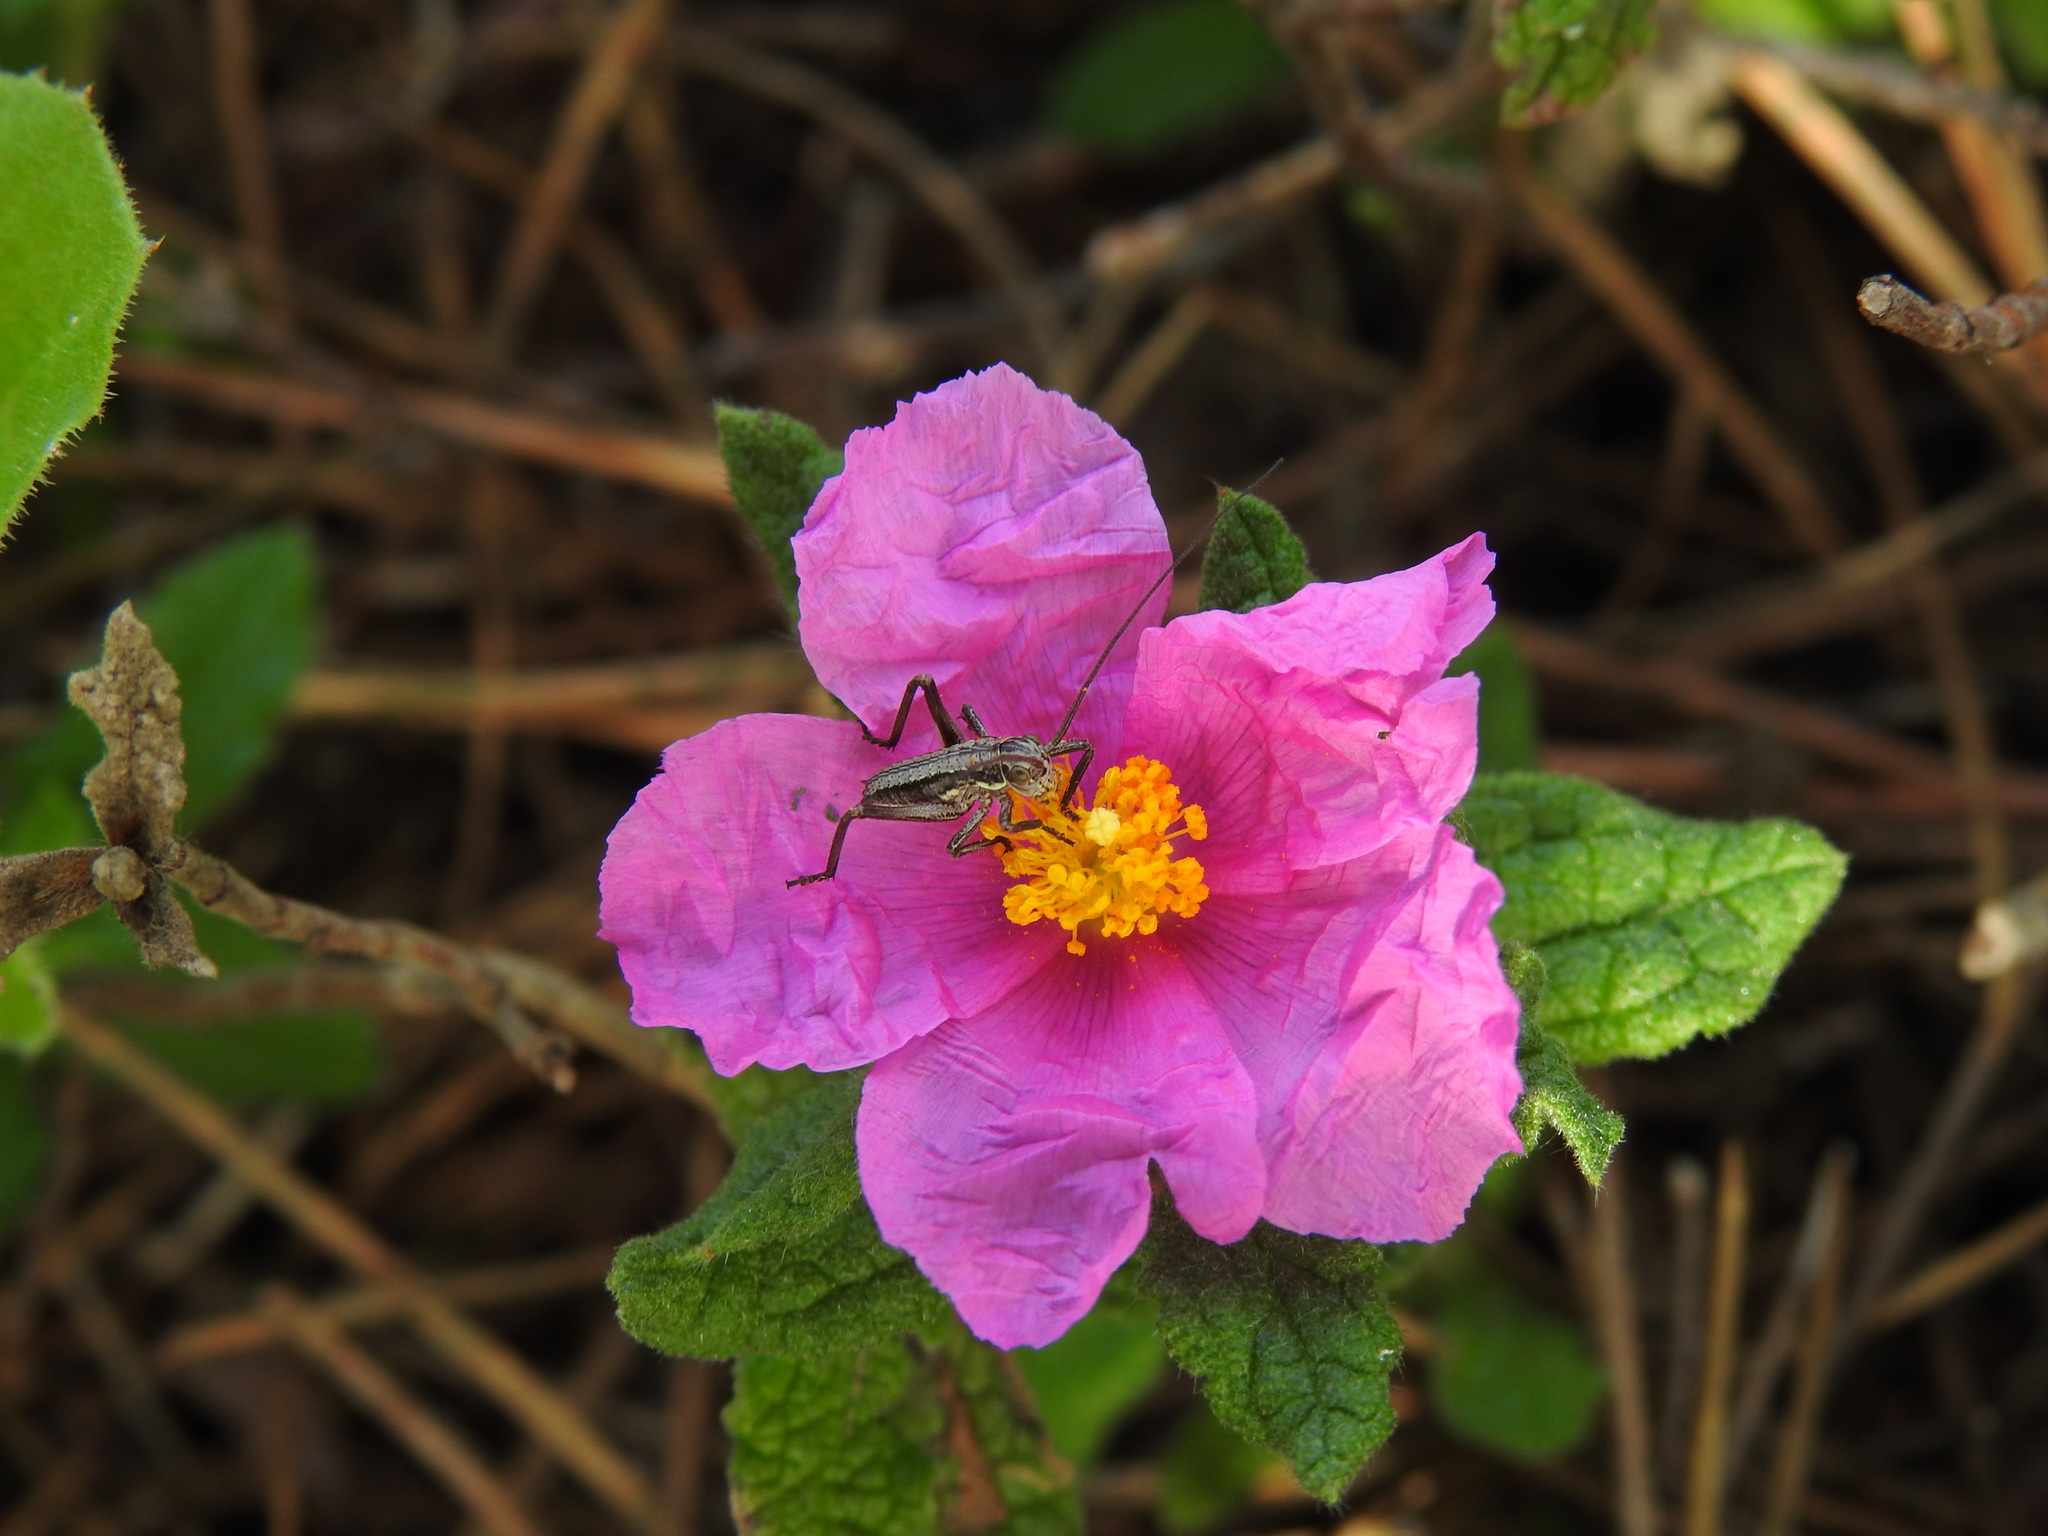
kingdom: Plantae
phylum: Tracheophyta
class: Magnoliopsida
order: Malvales
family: Cistaceae
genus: Cistus
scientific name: Cistus crispus
